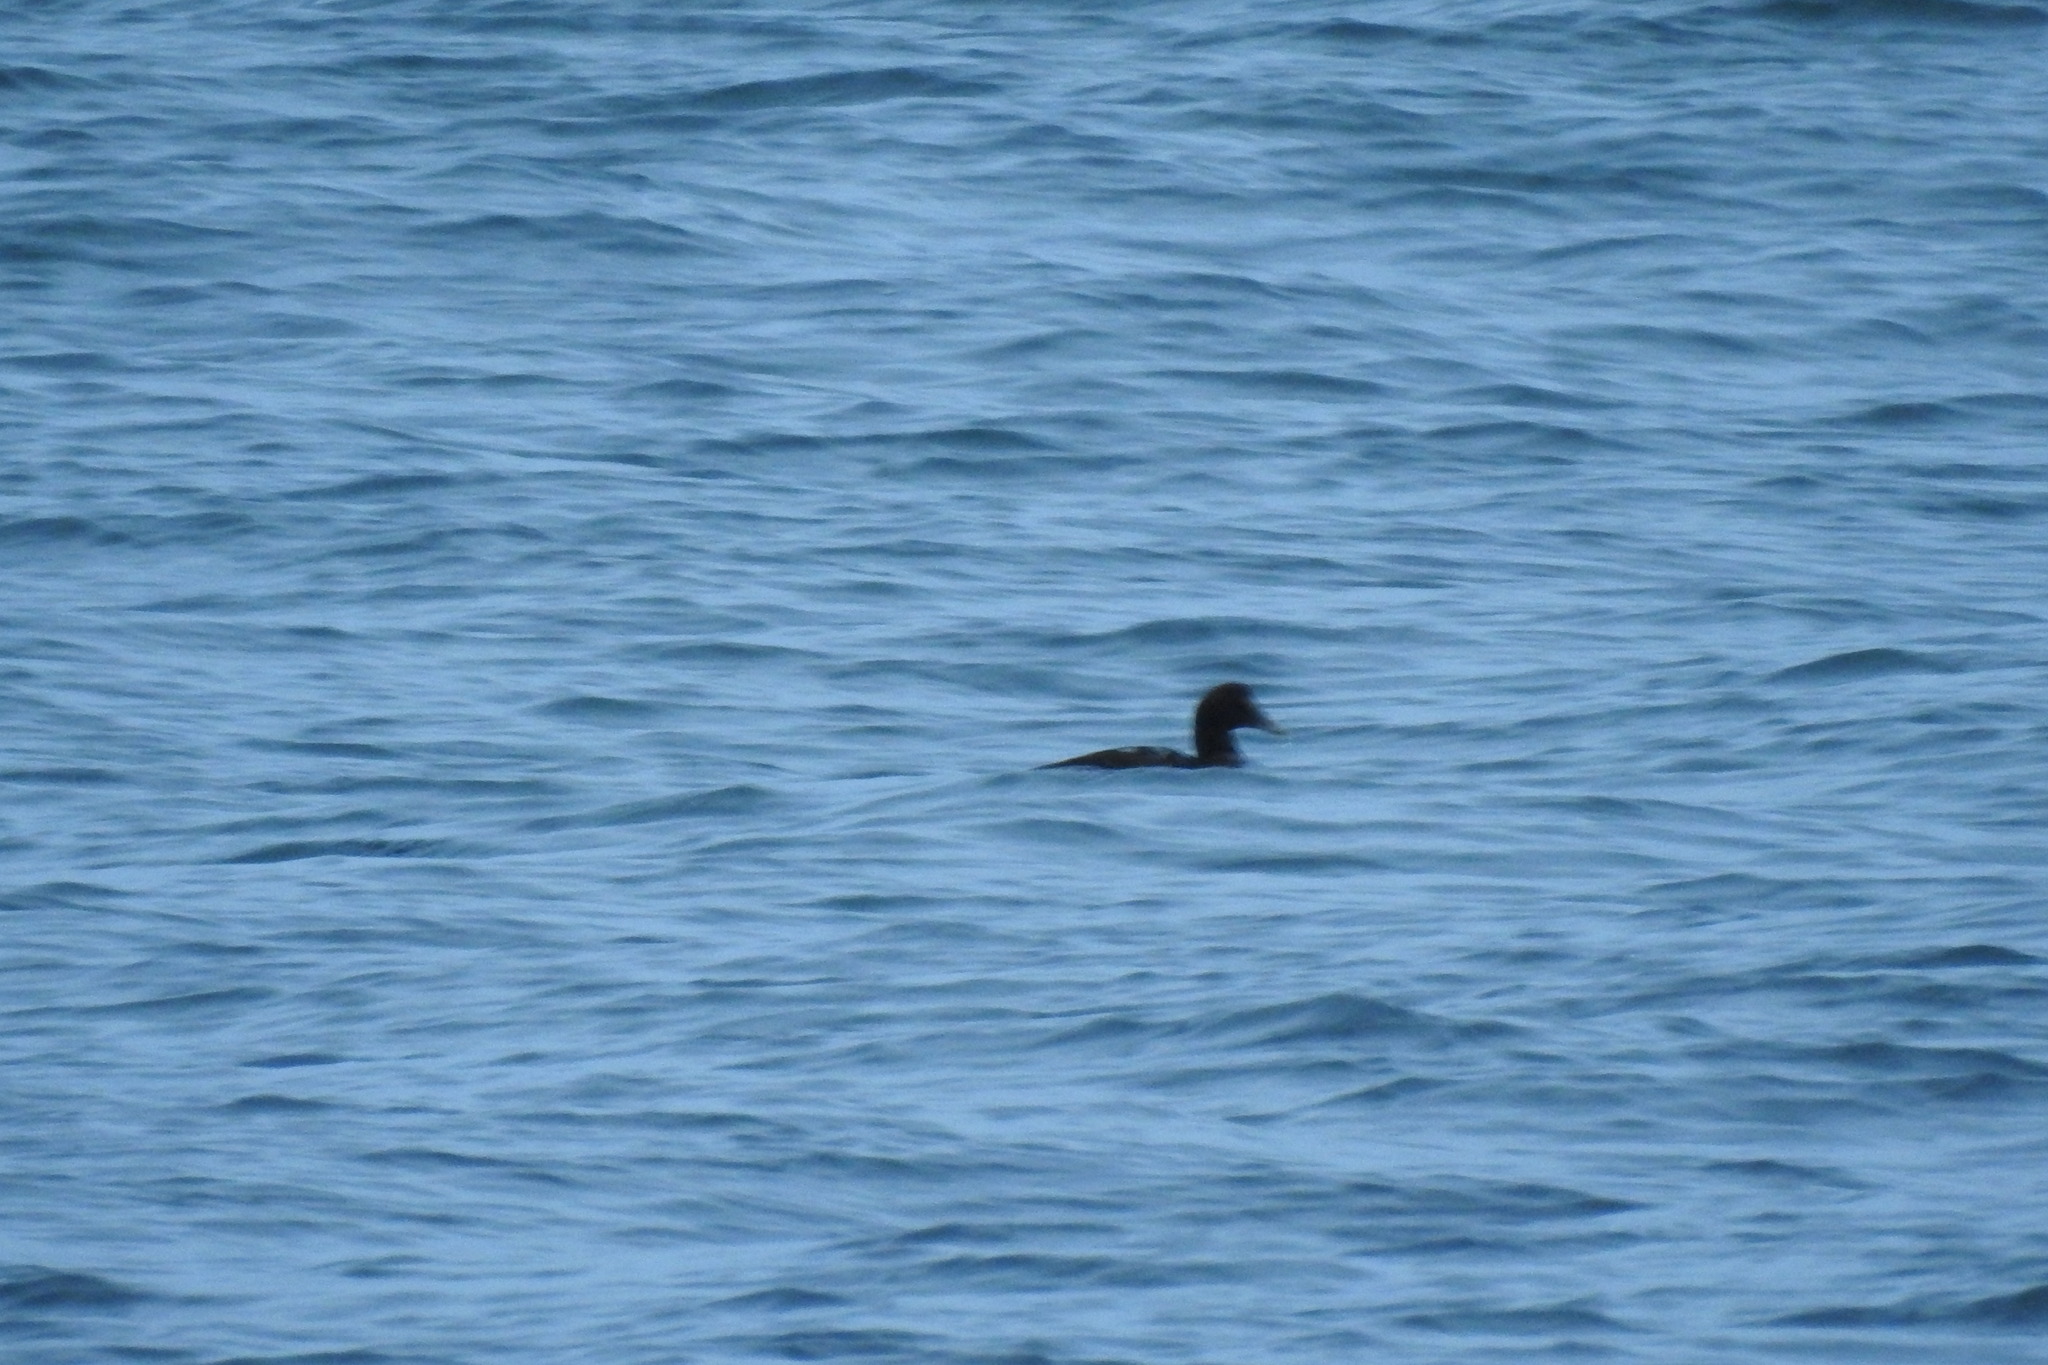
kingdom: Animalia
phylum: Chordata
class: Aves
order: Anseriformes
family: Anatidae
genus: Somateria
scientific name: Somateria mollissima
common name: Common eider
